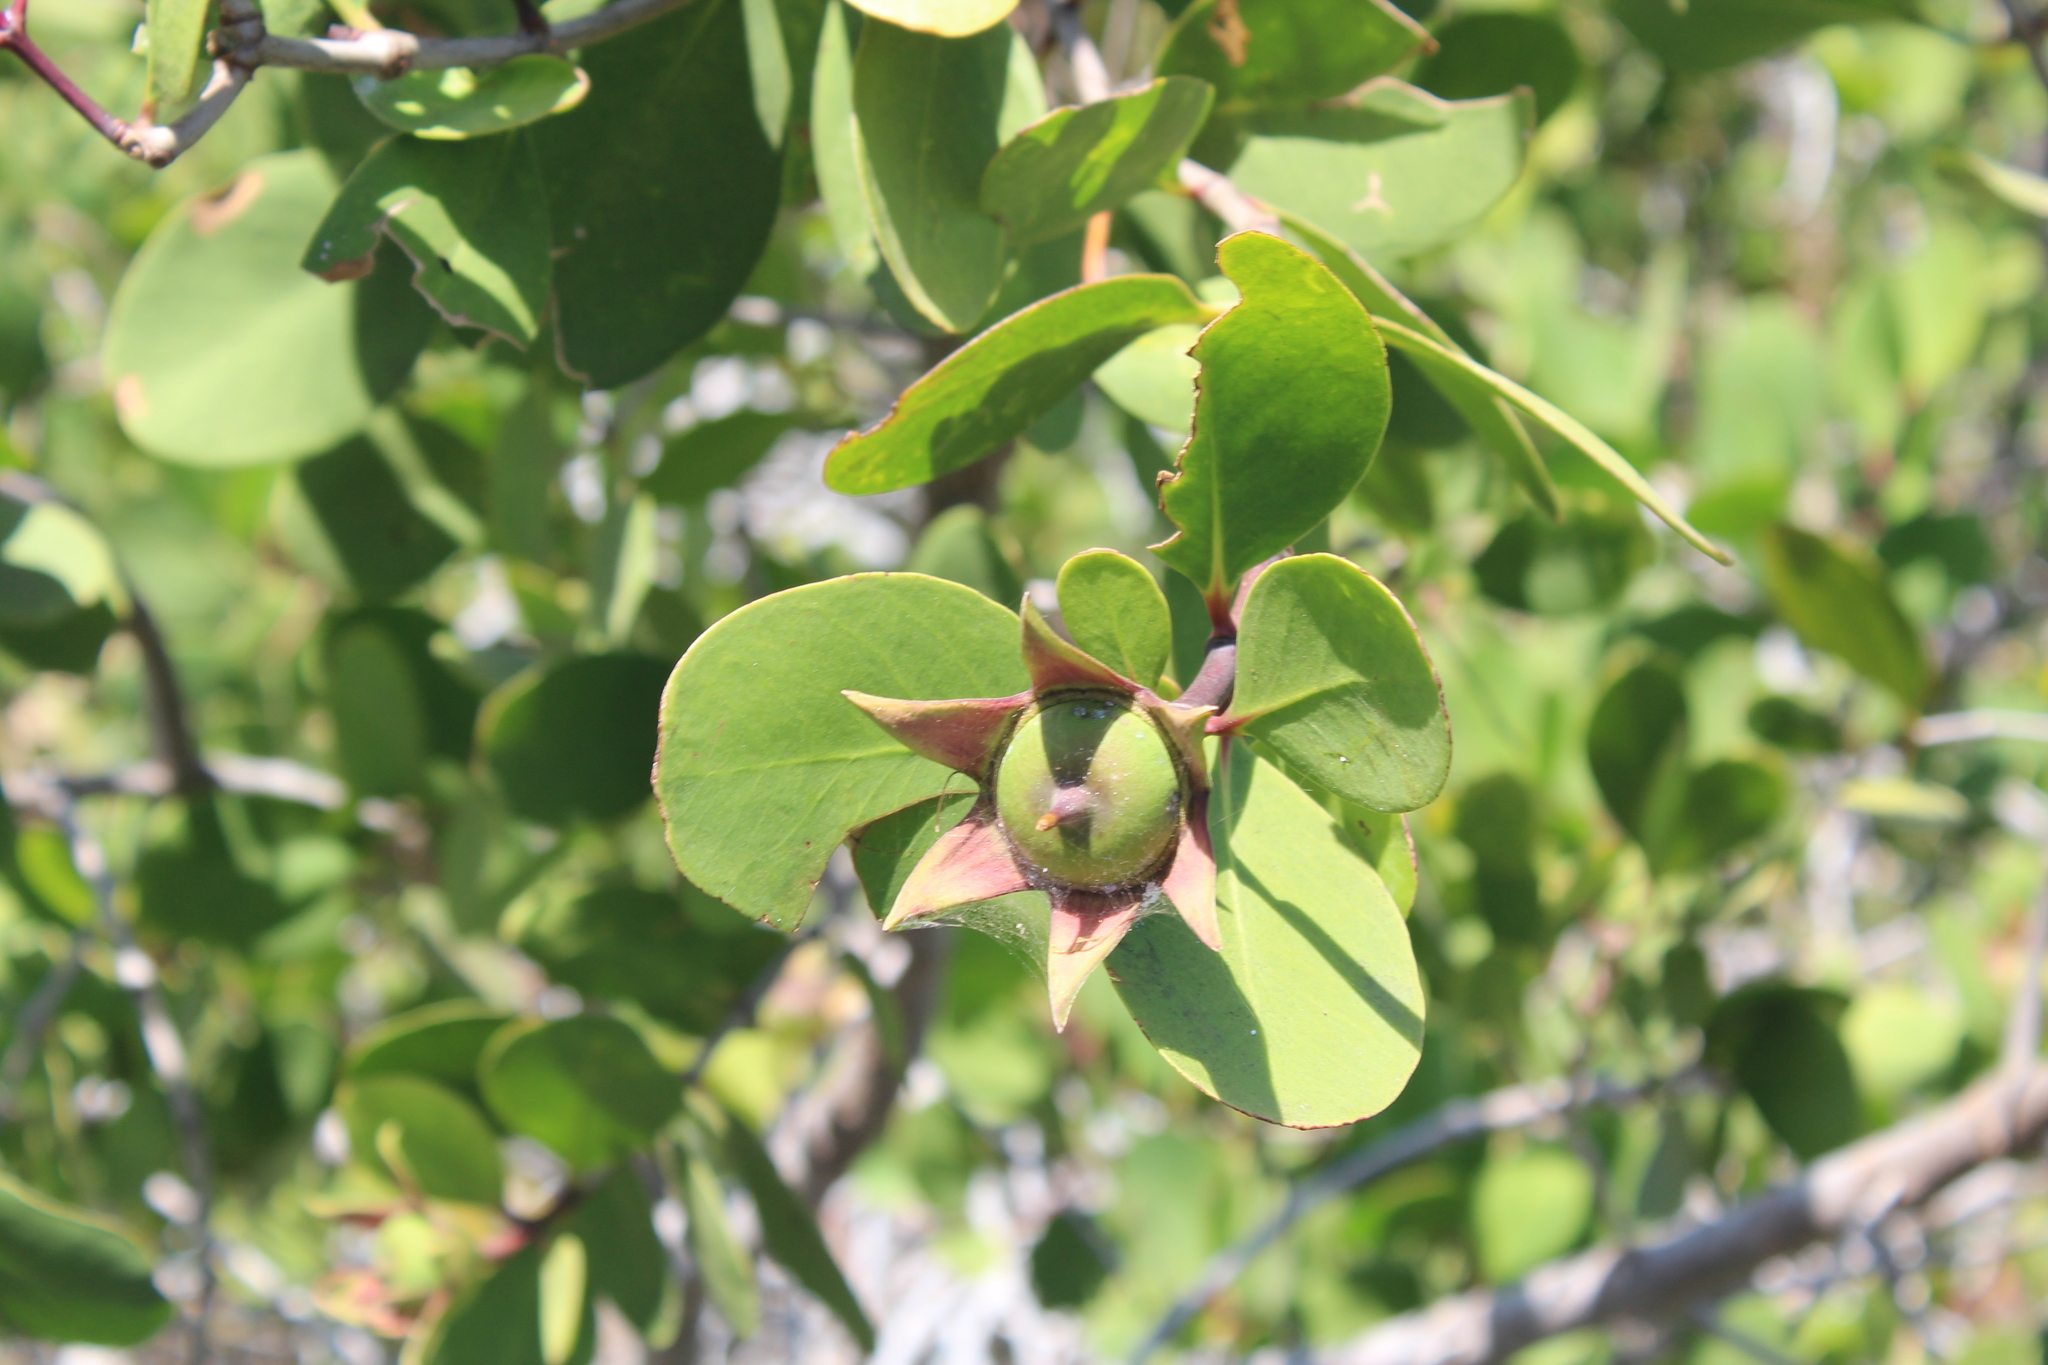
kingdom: Plantae
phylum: Tracheophyta
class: Magnoliopsida
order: Myrtales
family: Lythraceae
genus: Sonneratia
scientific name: Sonneratia alba
